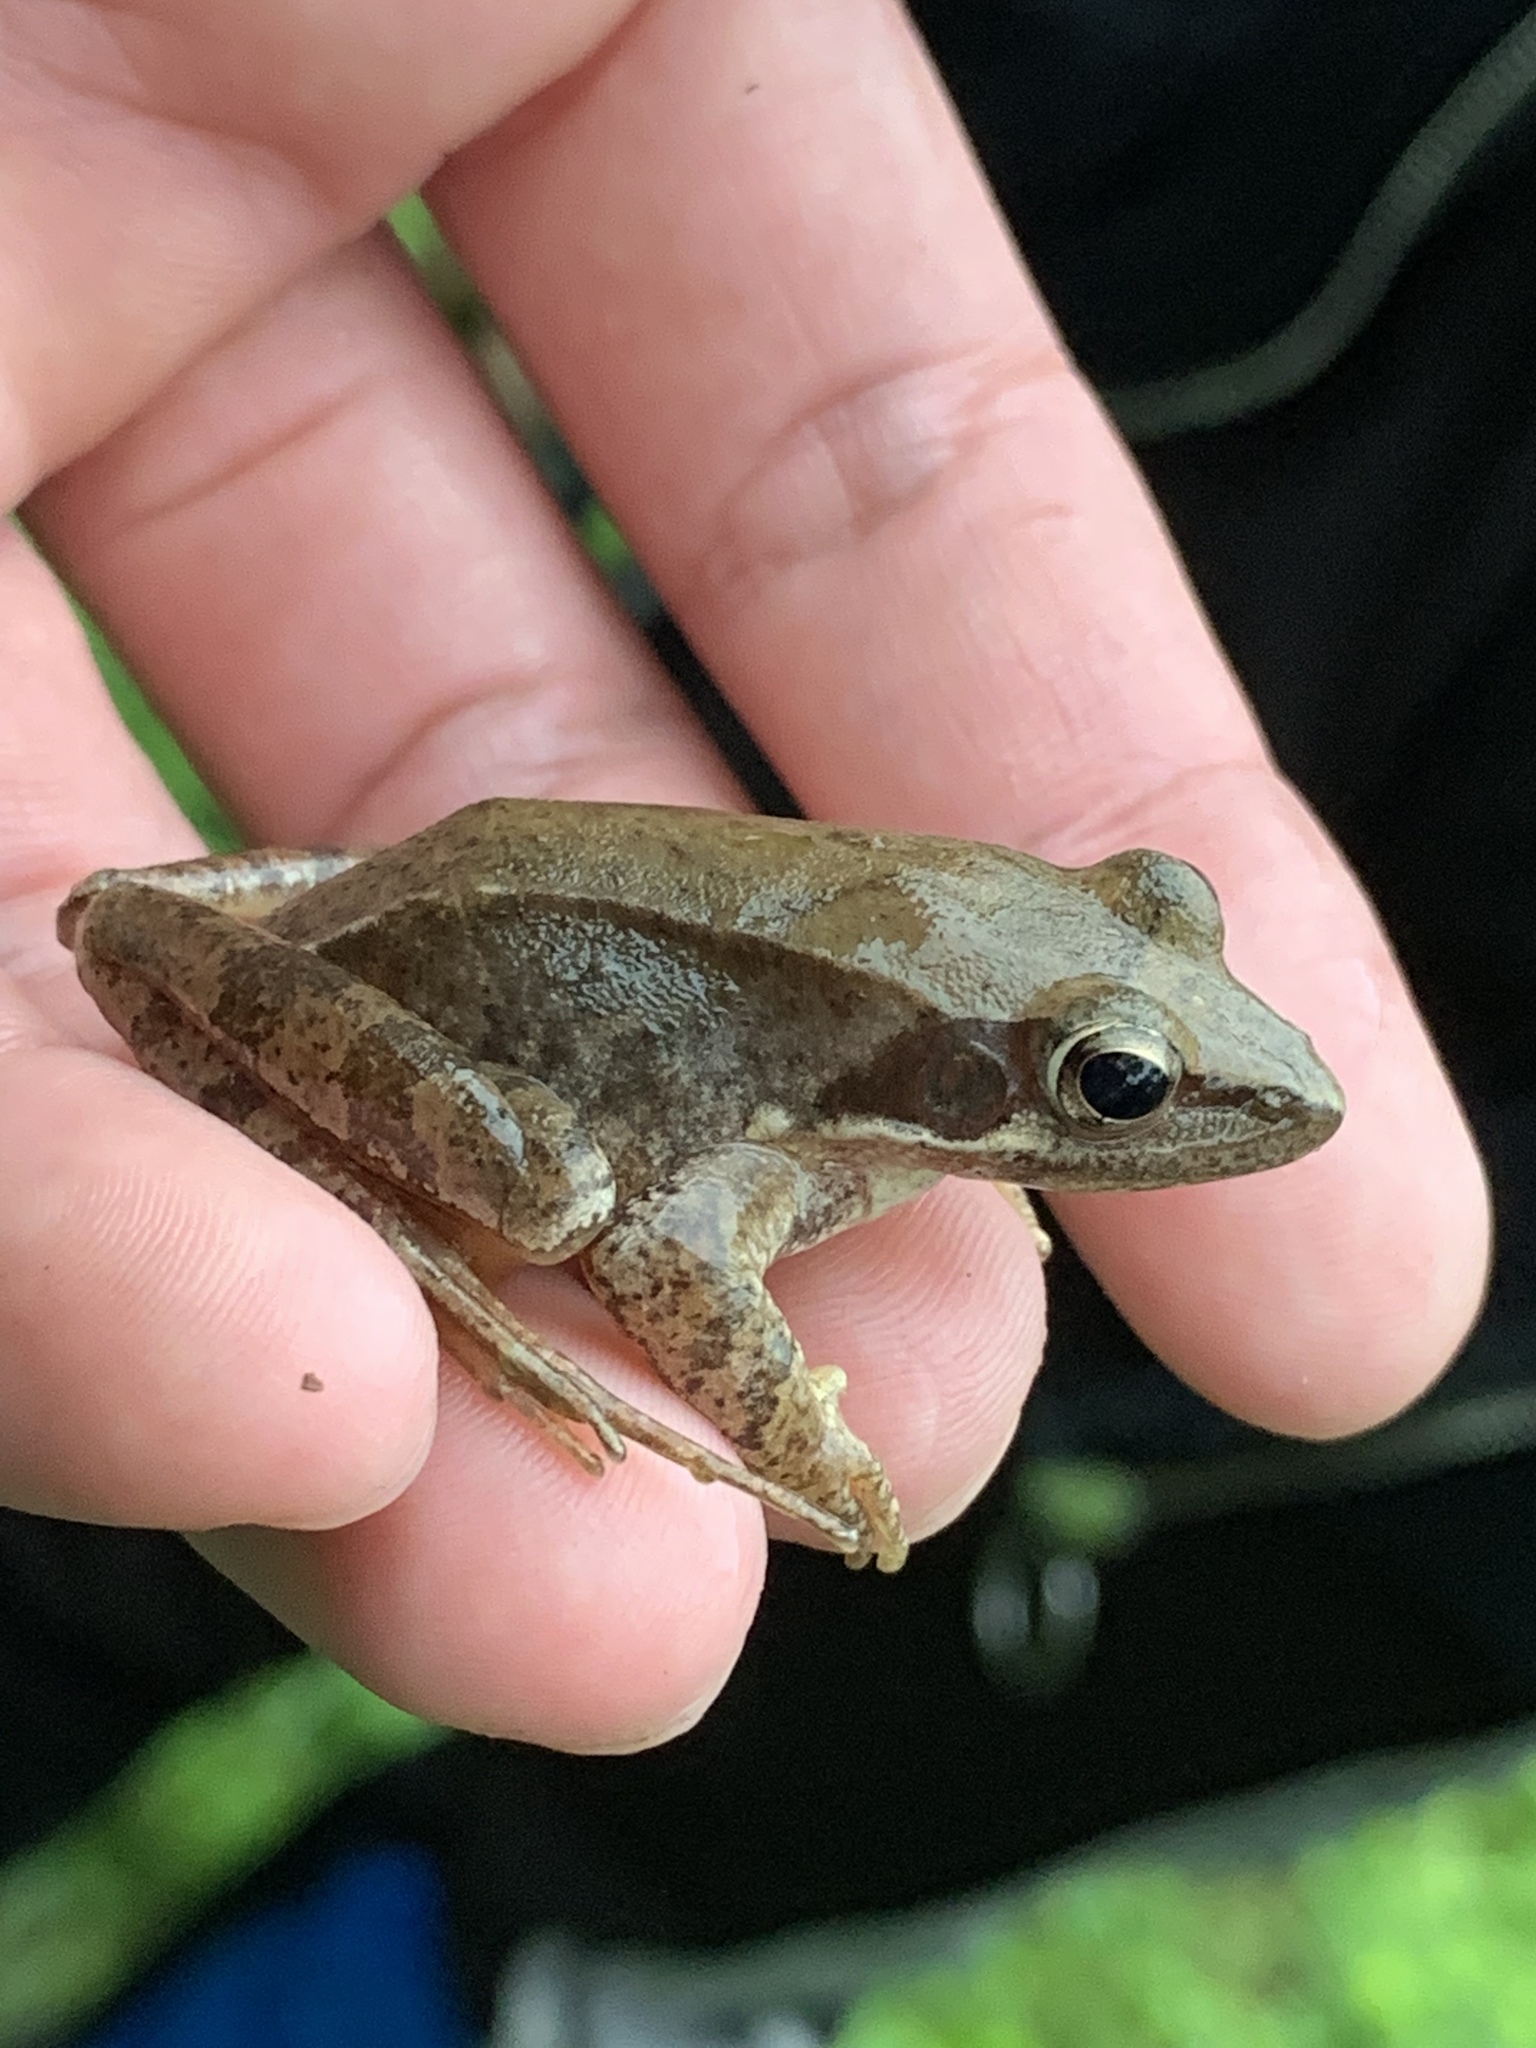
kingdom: Animalia
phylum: Chordata
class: Amphibia
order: Anura
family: Ranidae
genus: Rana
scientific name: Rana longicrus
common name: Long-legged brown frog
